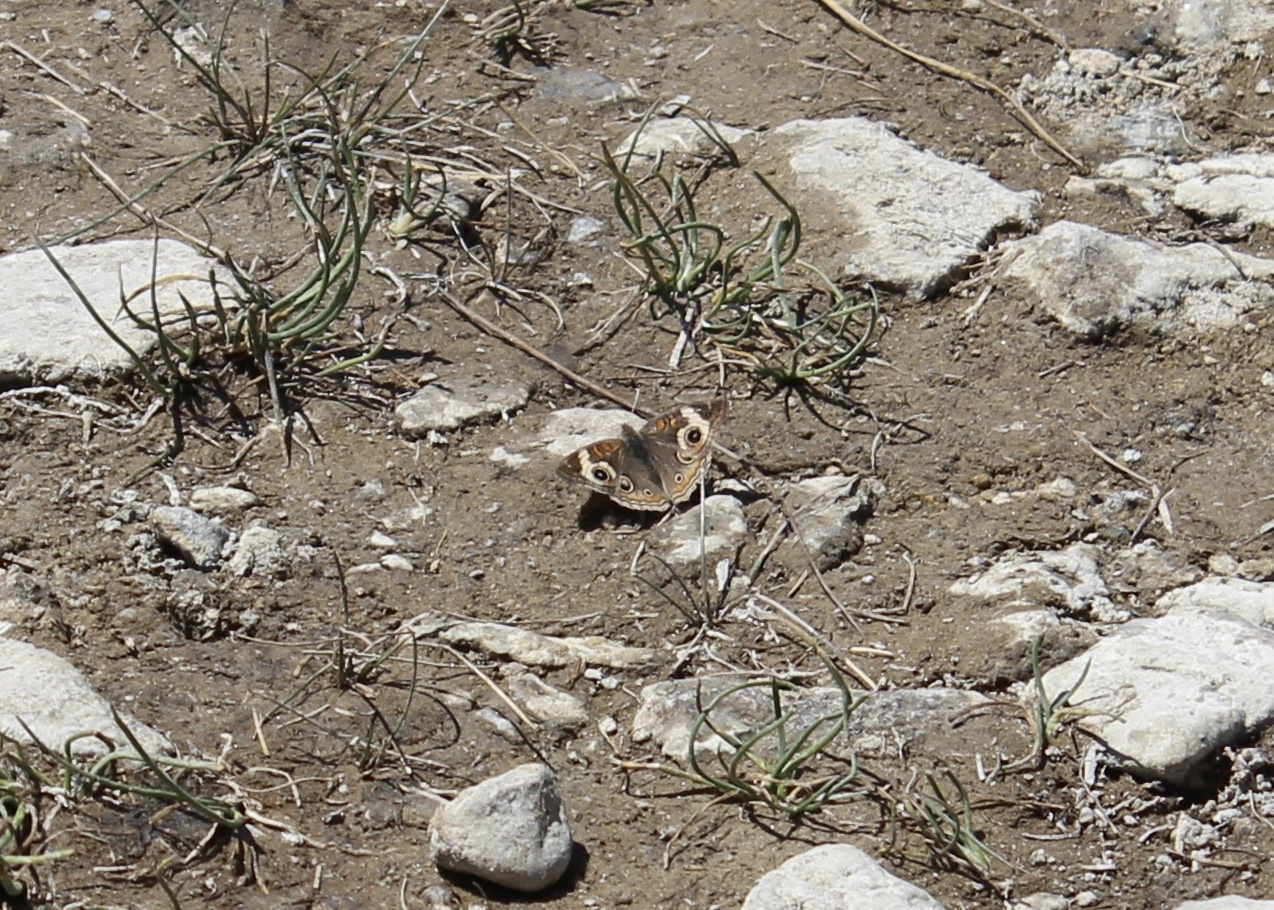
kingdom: Animalia
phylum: Arthropoda
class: Insecta
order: Lepidoptera
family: Nymphalidae
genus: Junonia
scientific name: Junonia grisea
